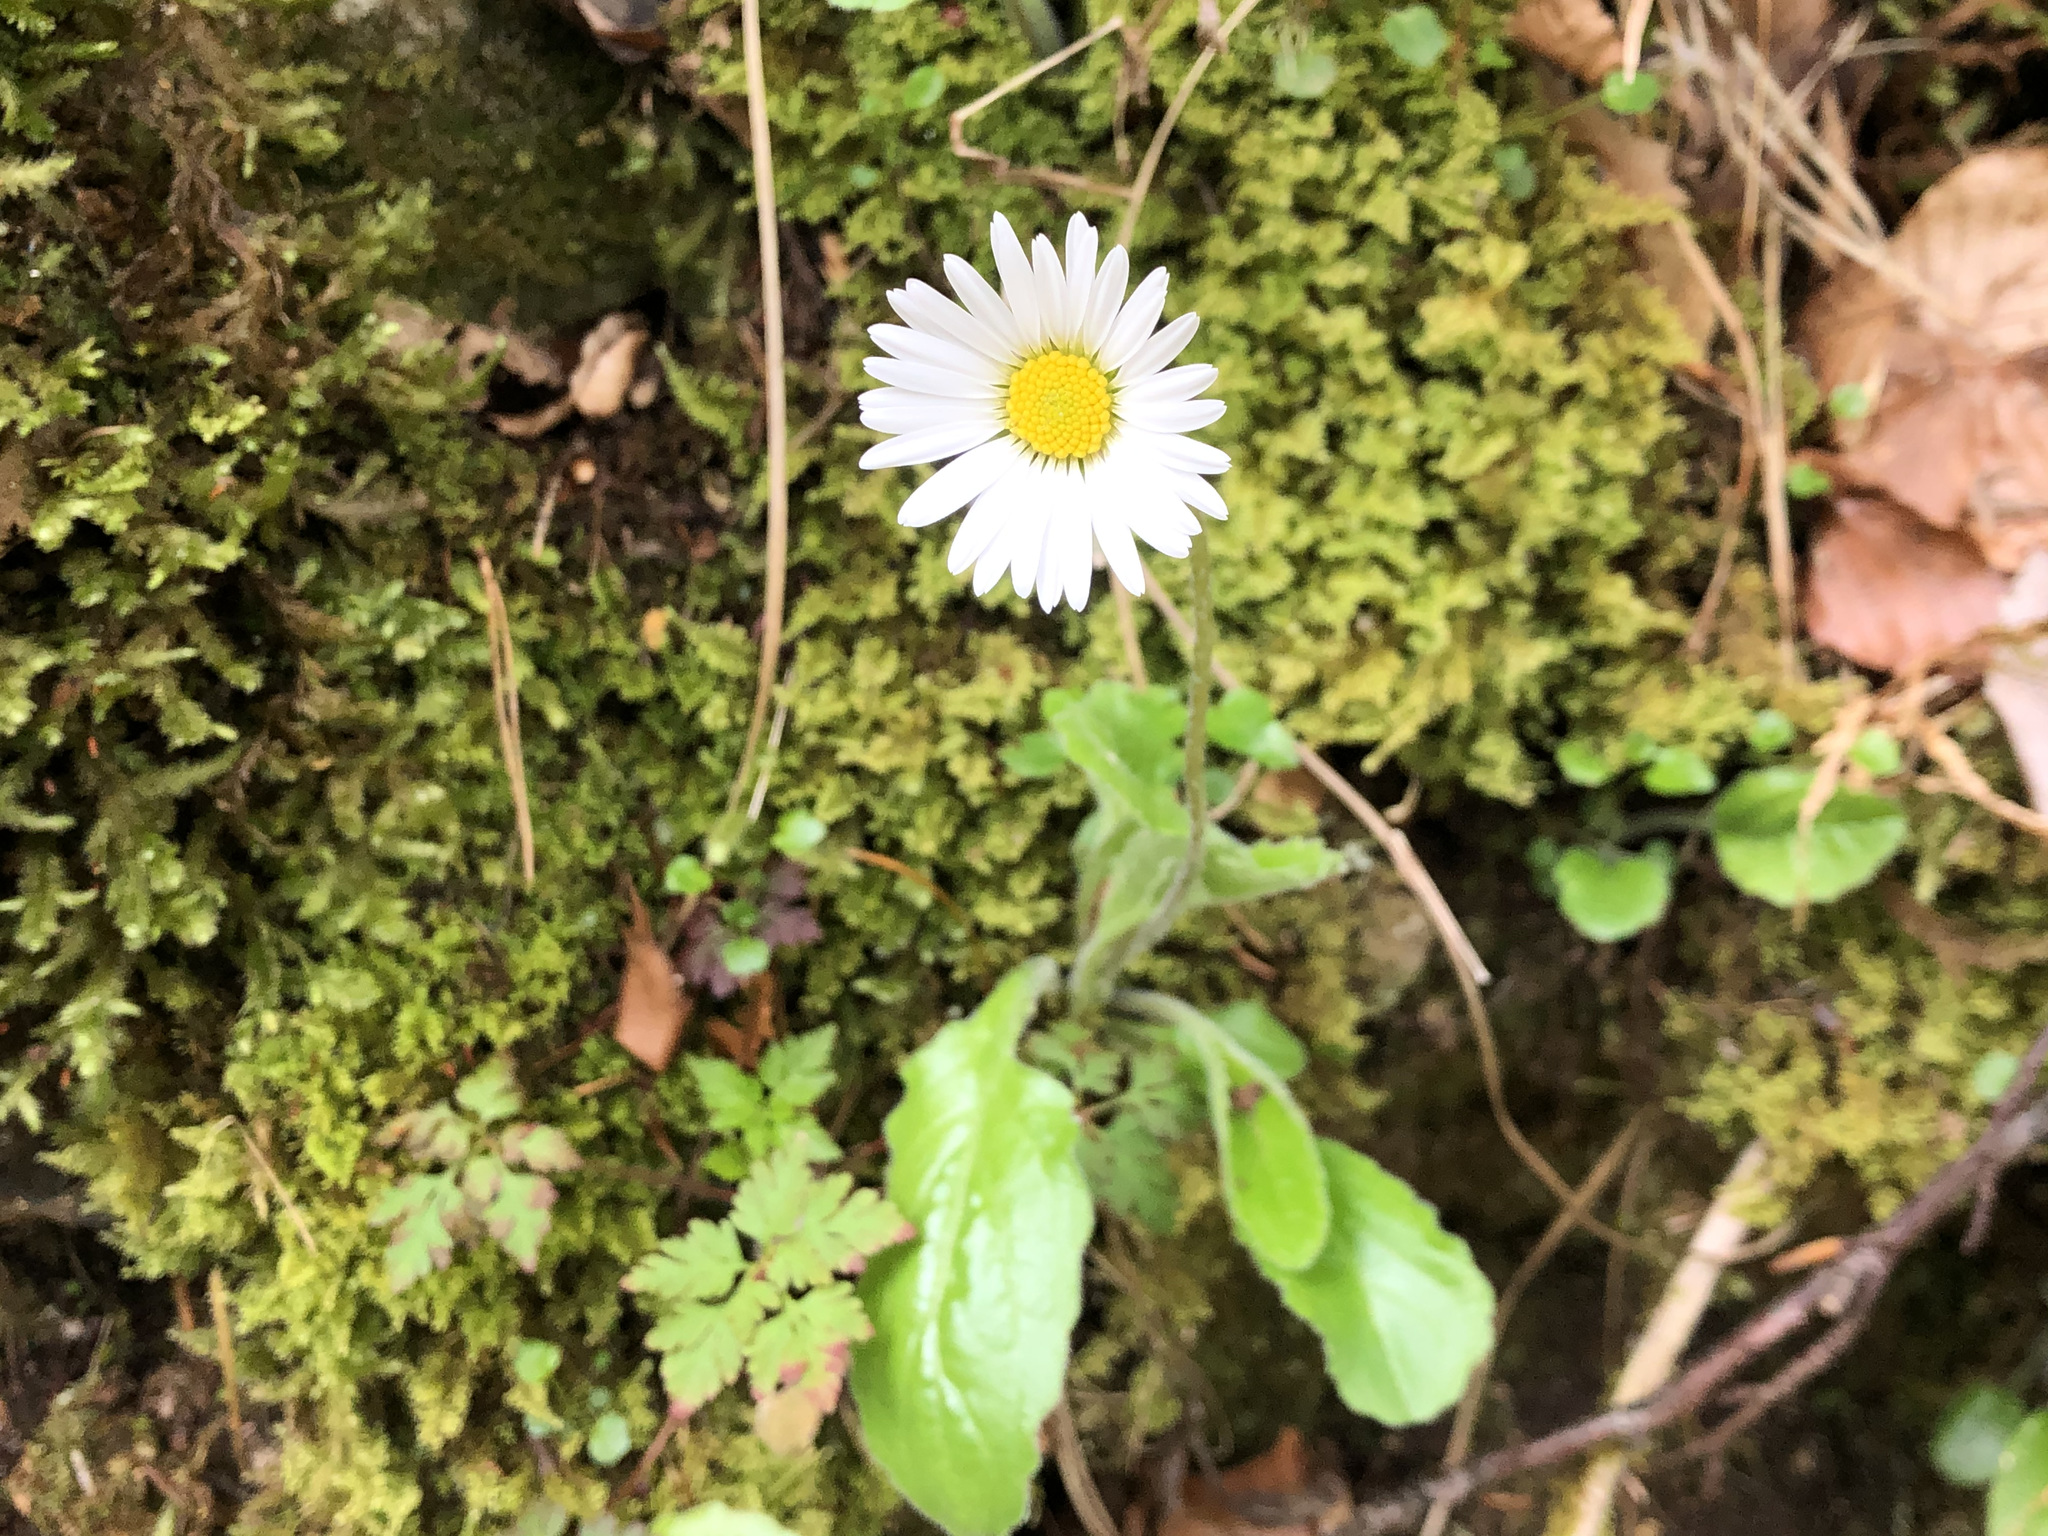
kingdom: Plantae
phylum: Tracheophyta
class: Magnoliopsida
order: Asterales
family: Asteraceae
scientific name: Asteraceae
